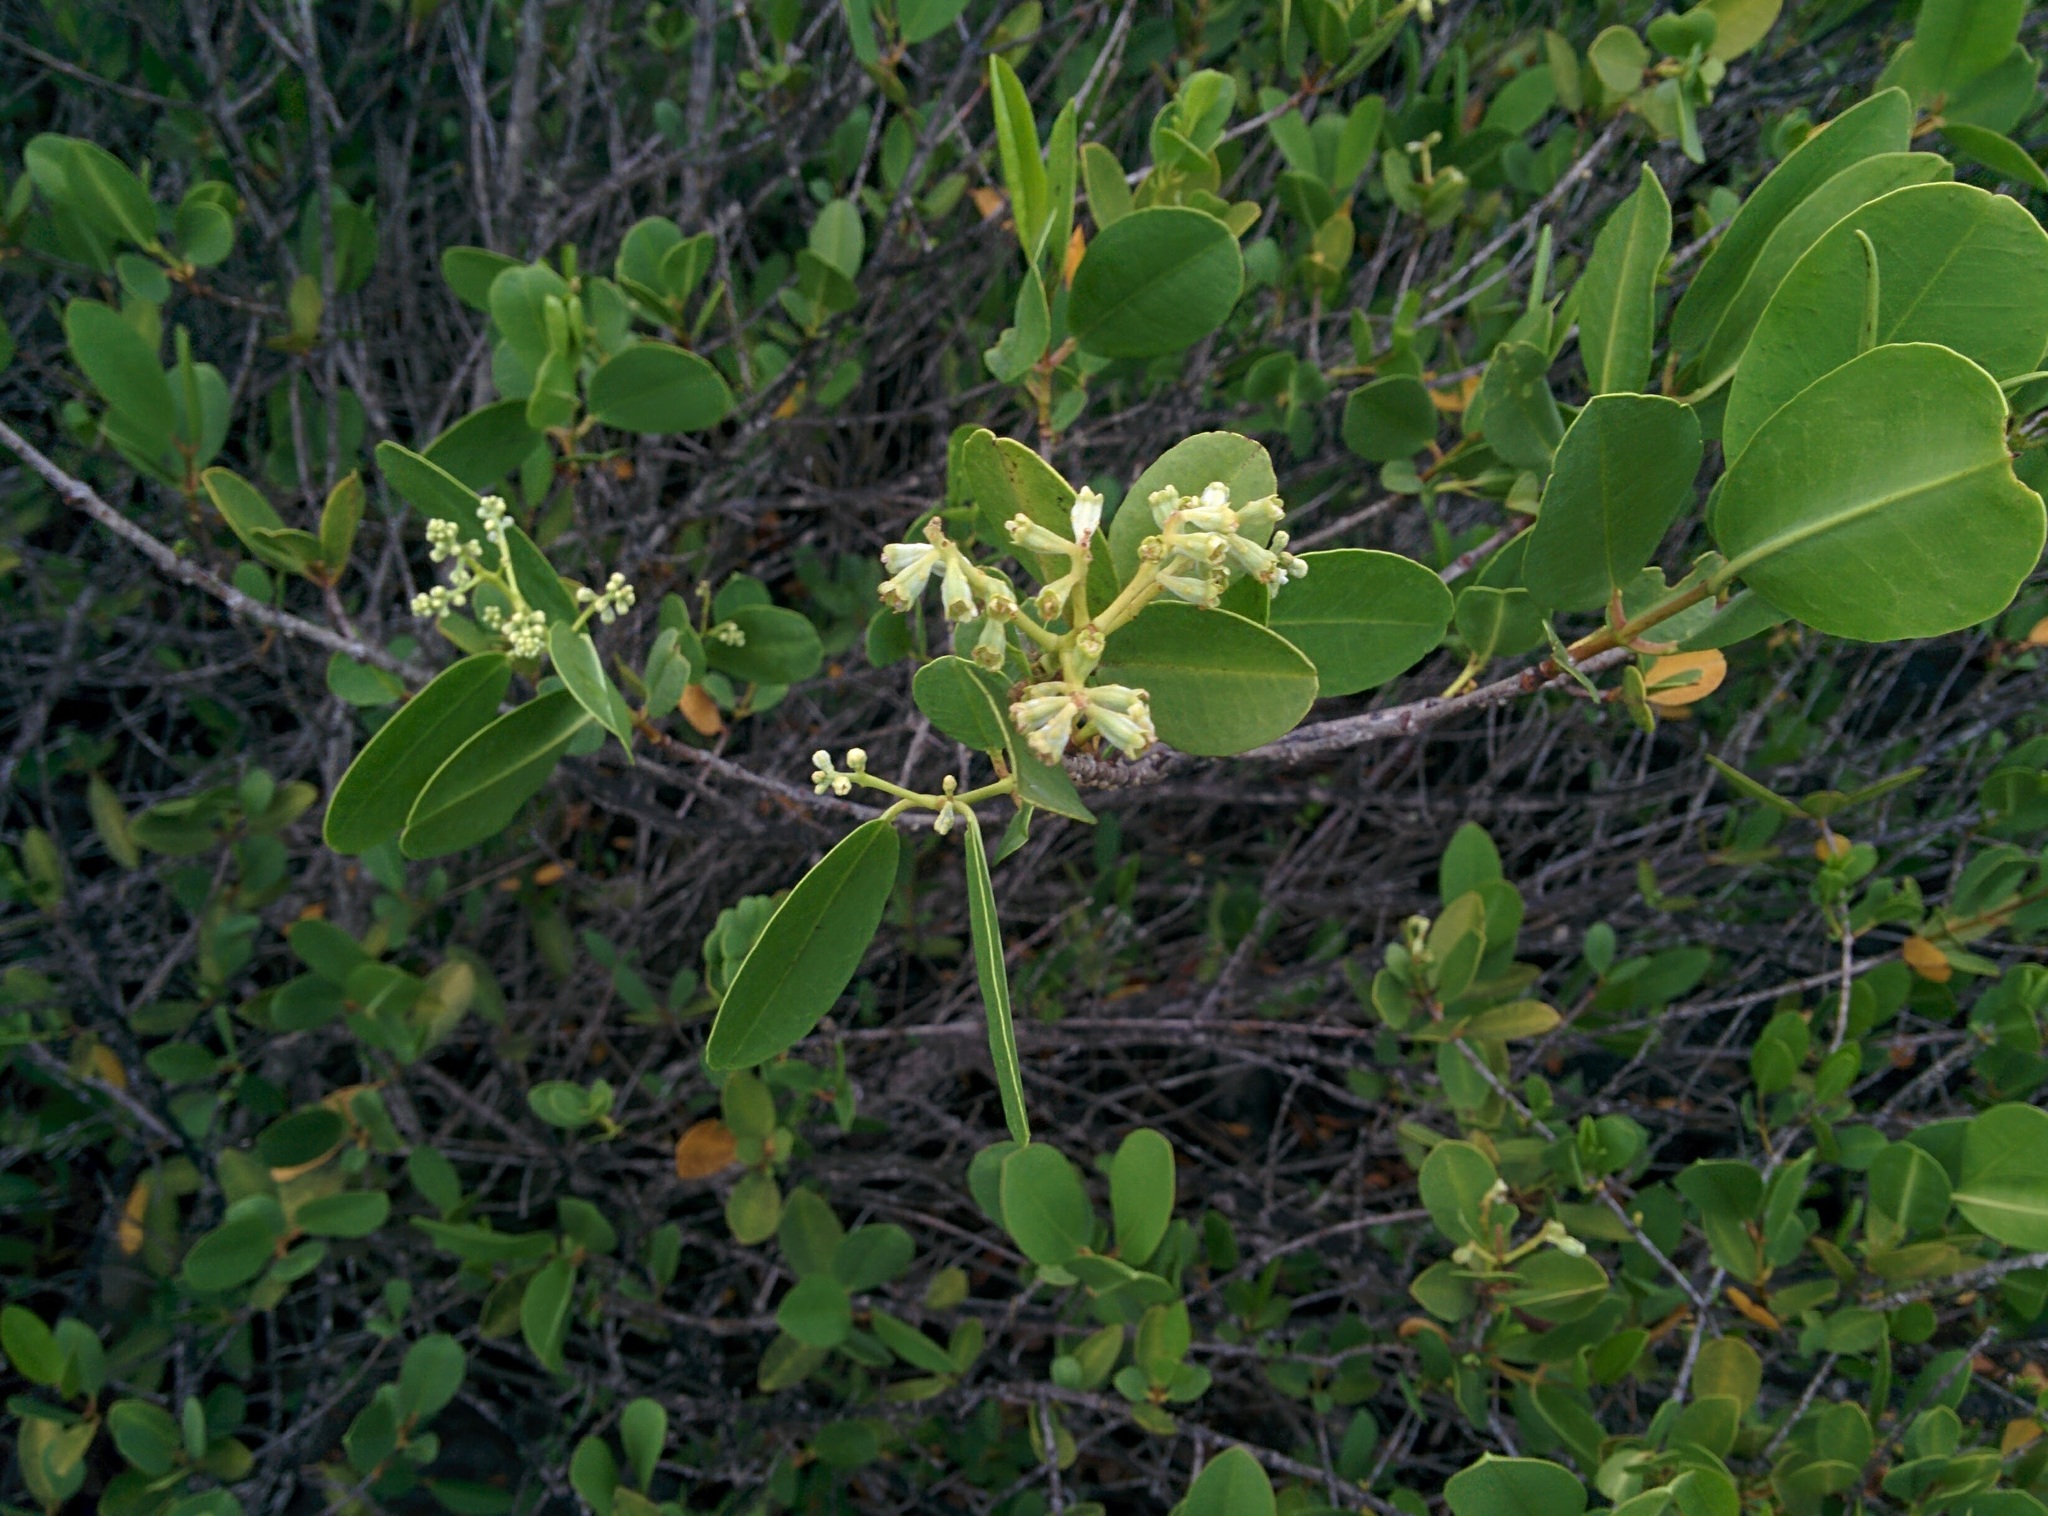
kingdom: Plantae
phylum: Tracheophyta
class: Magnoliopsida
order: Myrtales
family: Combretaceae
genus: Laguncularia
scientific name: Laguncularia racemosa
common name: White mangrove
